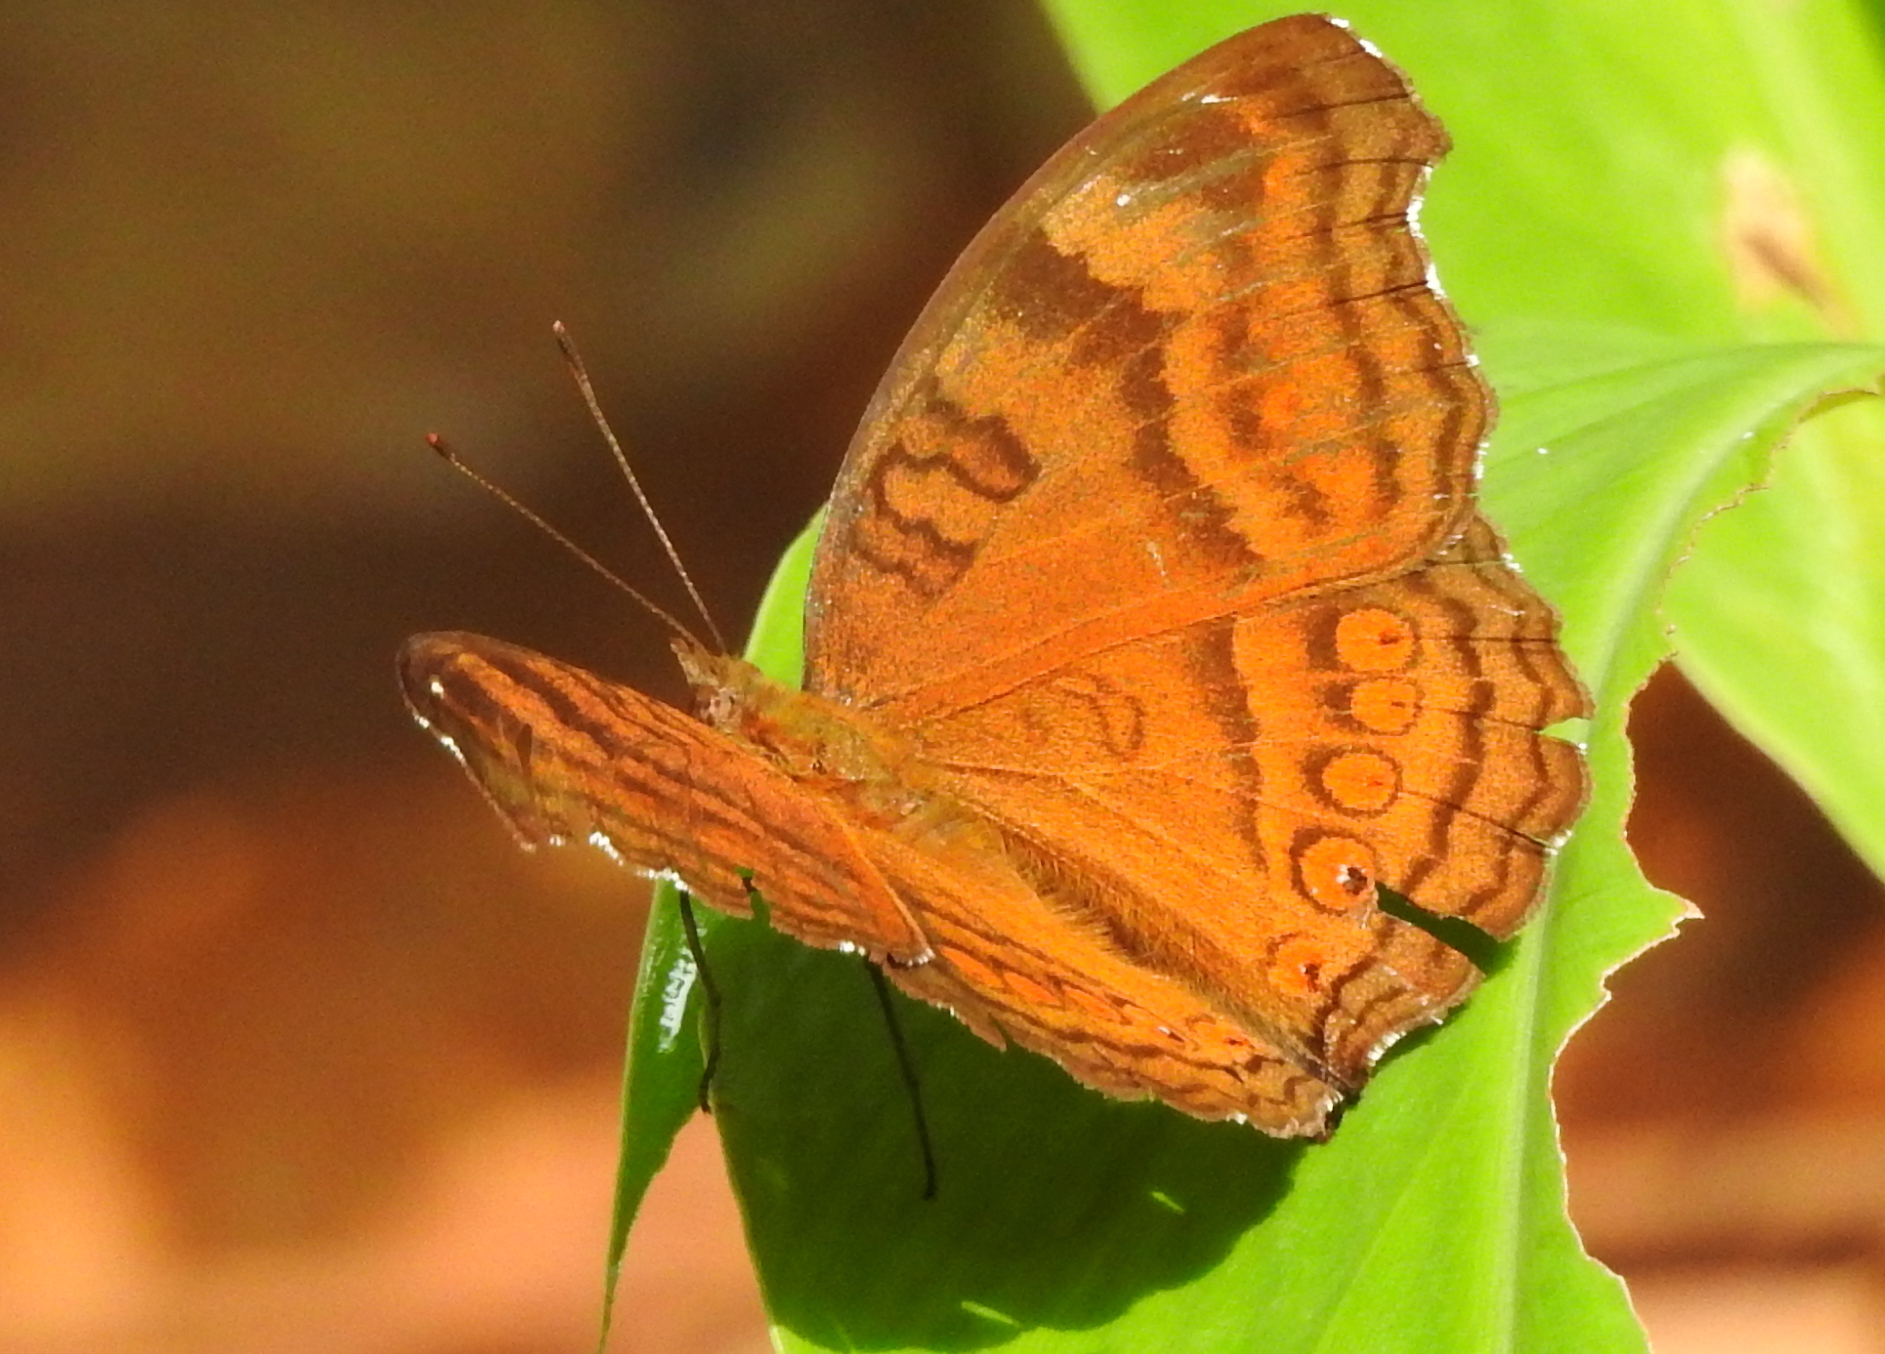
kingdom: Animalia
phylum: Arthropoda
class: Insecta
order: Lepidoptera
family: Nymphalidae
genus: Junonia
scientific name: Junonia hedonia
